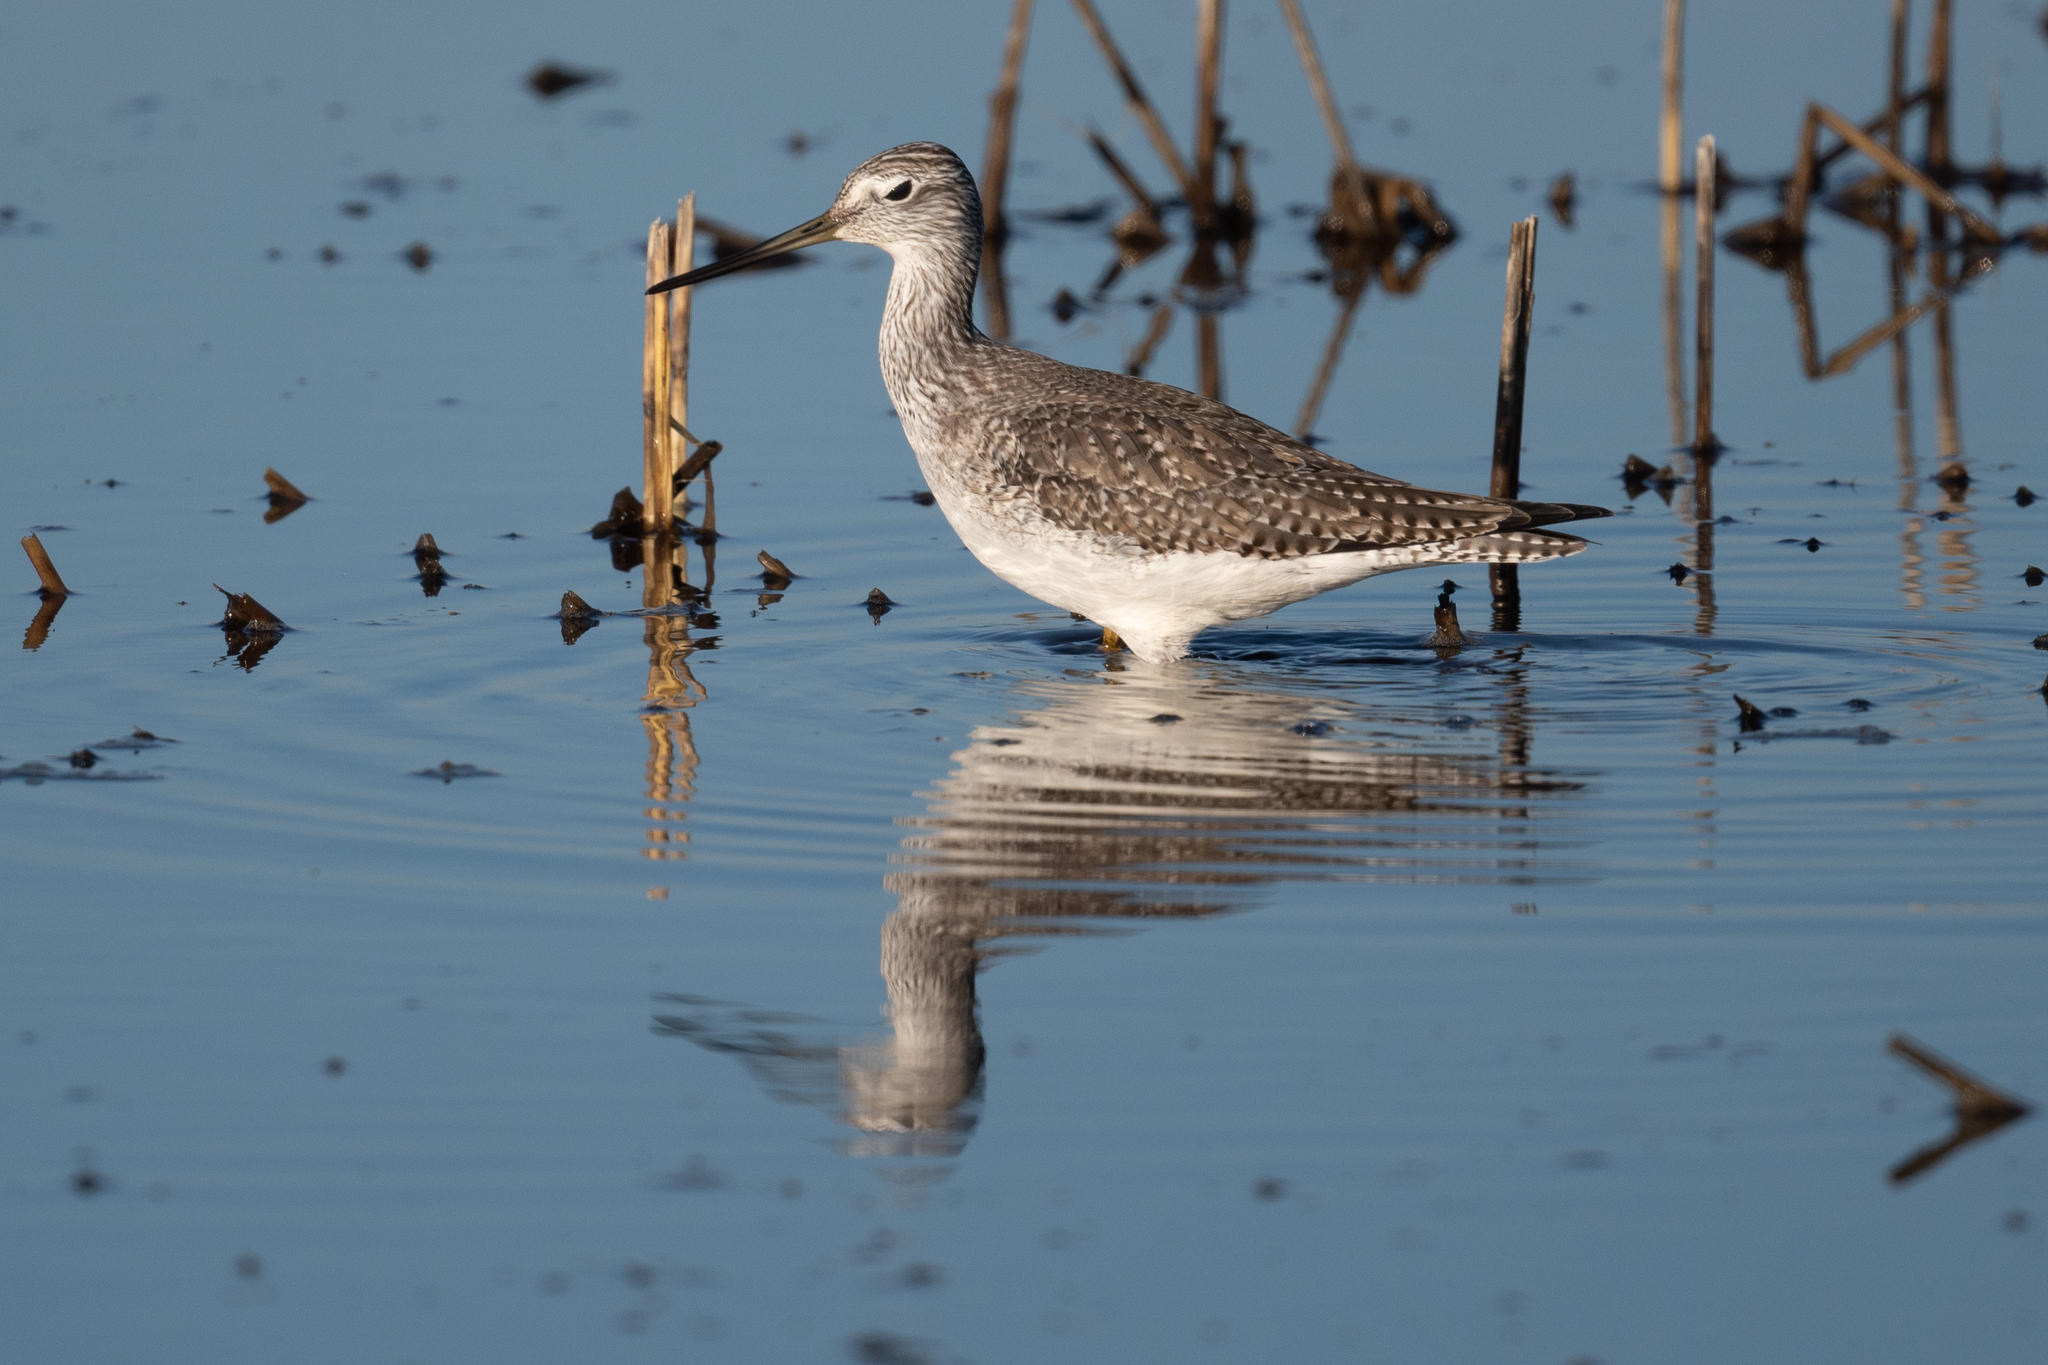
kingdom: Animalia
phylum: Chordata
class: Aves
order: Charadriiformes
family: Scolopacidae
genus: Tringa
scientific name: Tringa melanoleuca
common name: Greater yellowlegs
